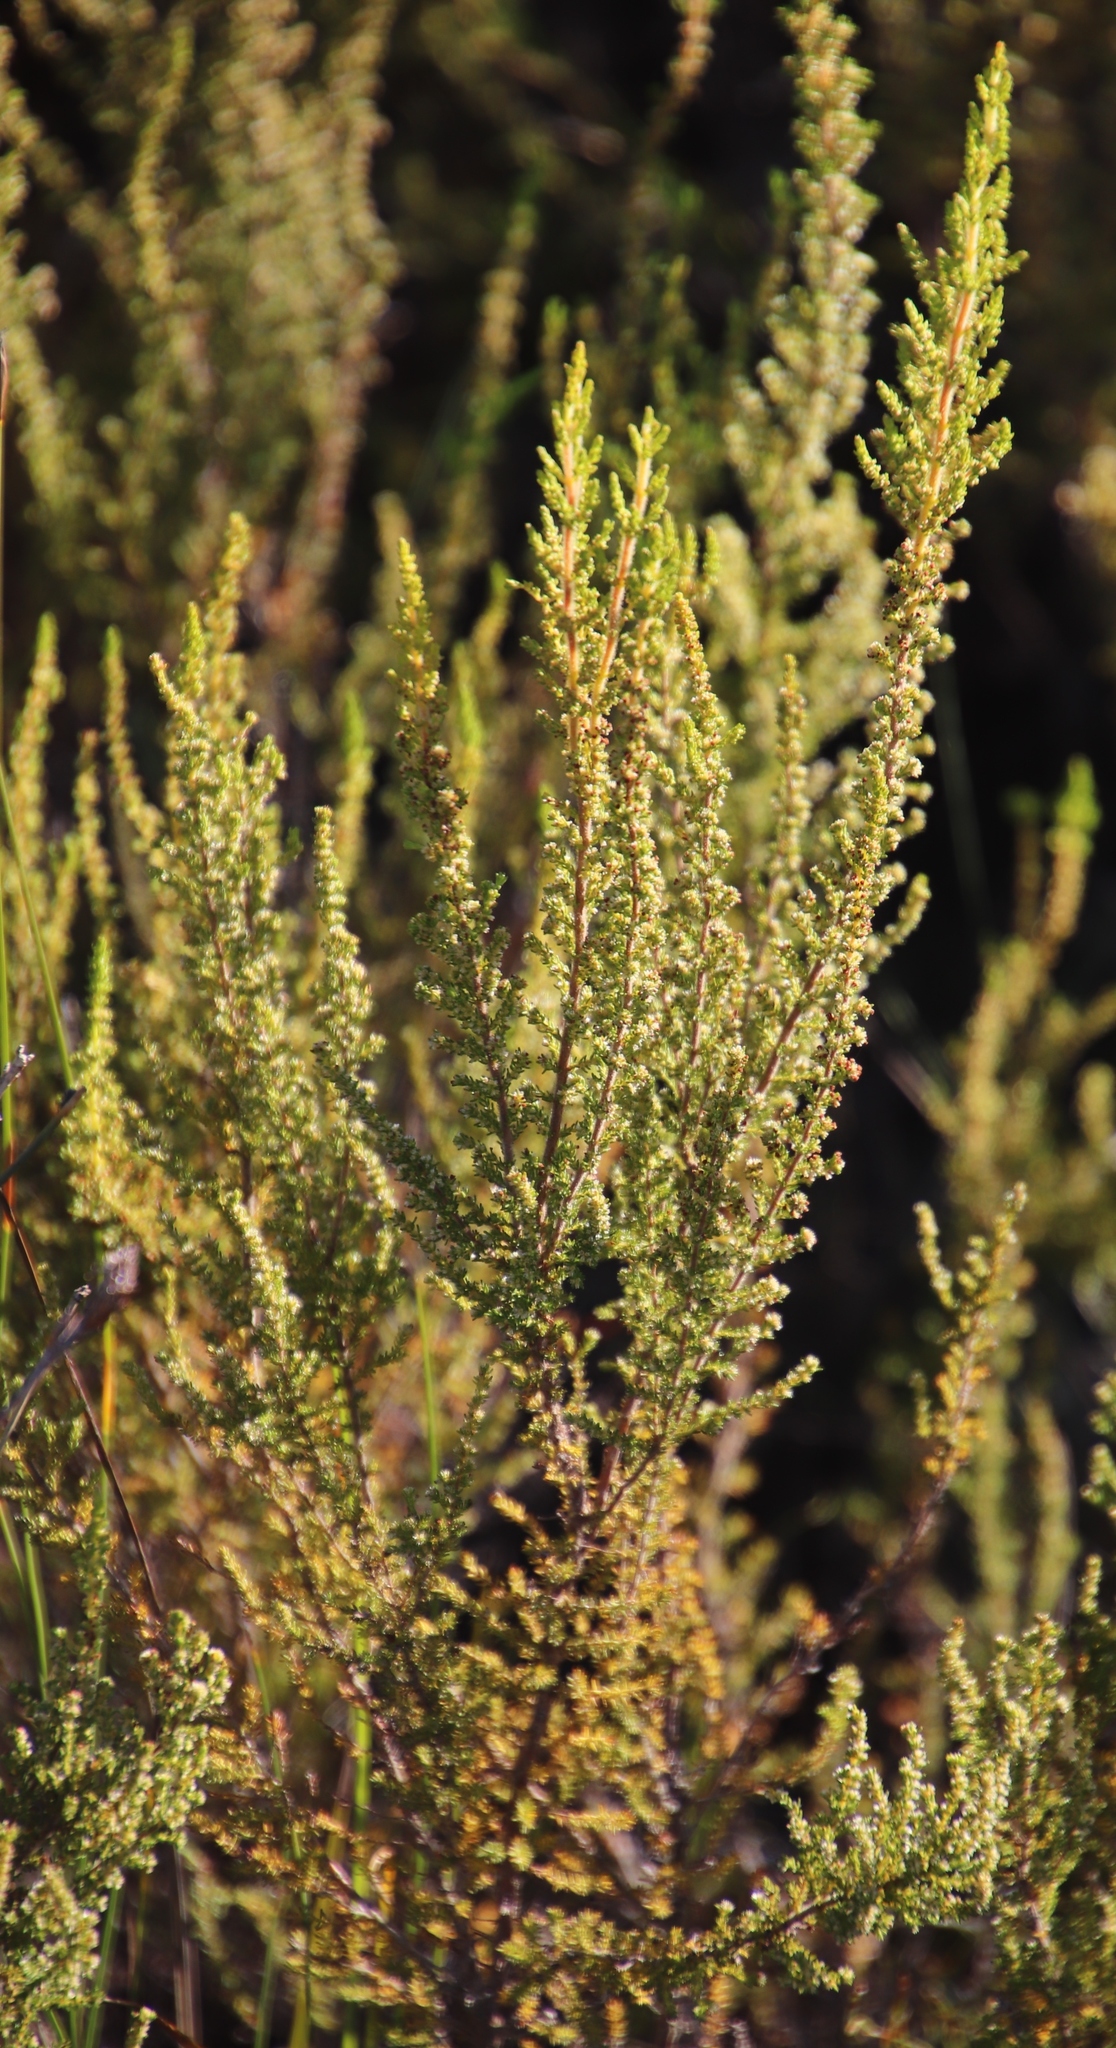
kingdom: Plantae
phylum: Tracheophyta
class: Magnoliopsida
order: Ericales
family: Ericaceae
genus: Erica
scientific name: Erica muscosa
